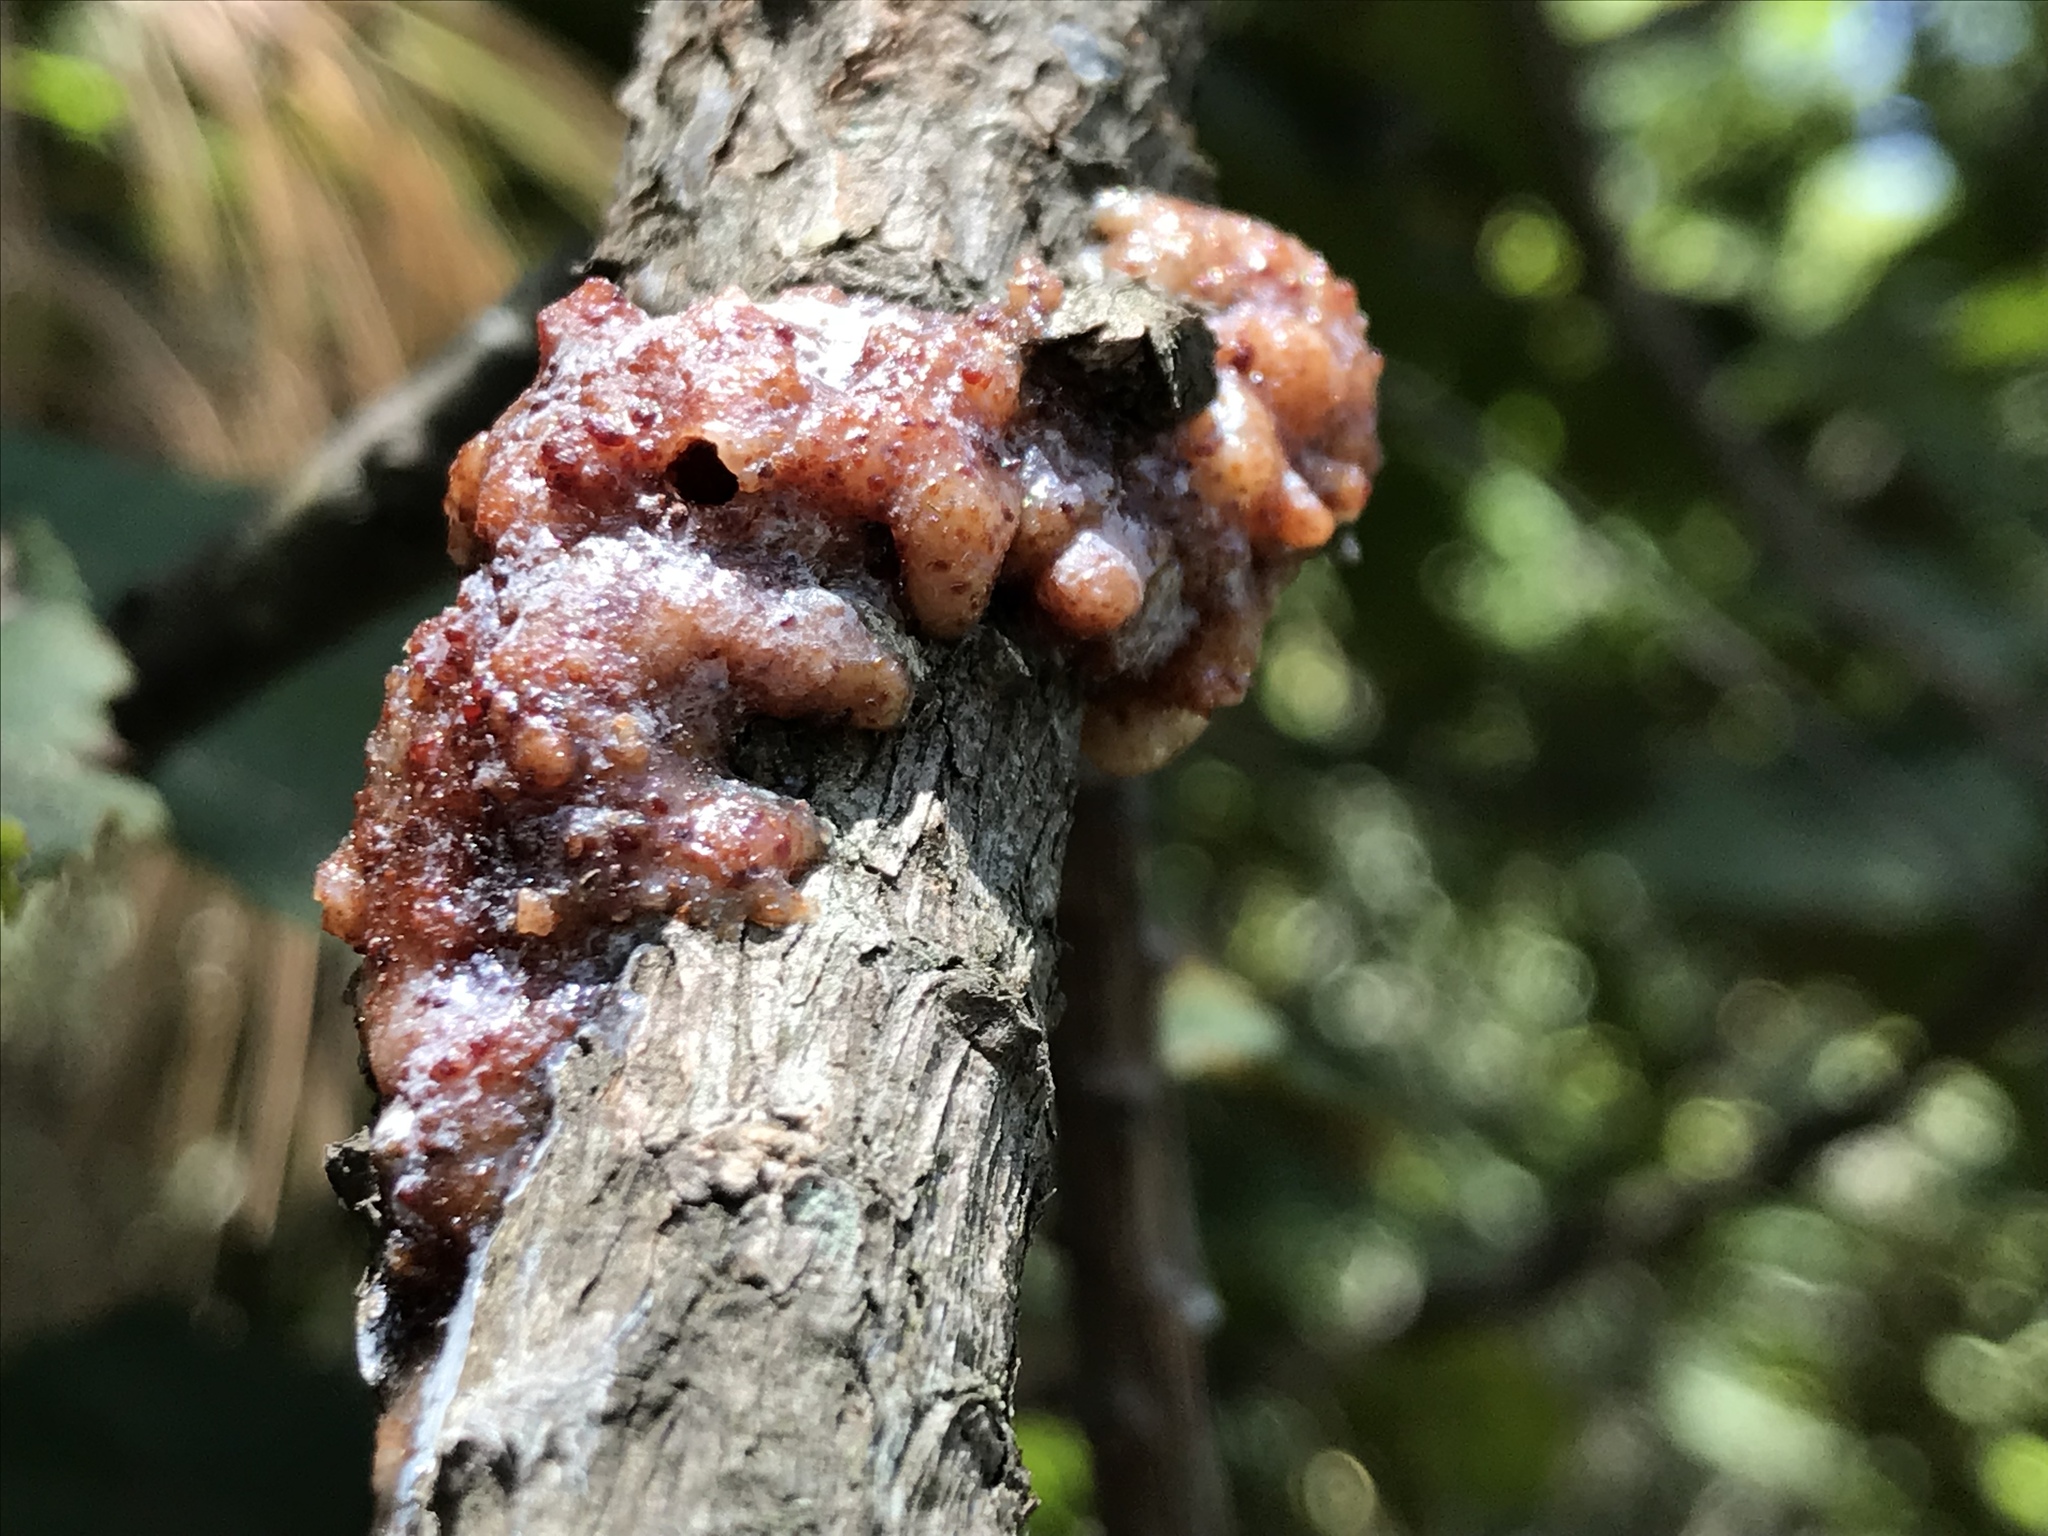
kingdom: Plantae
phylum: Tracheophyta
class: Pinopsida
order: Pinales
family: Pinaceae
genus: Pinus
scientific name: Pinus pseudostrobus
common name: False weymouth pine
